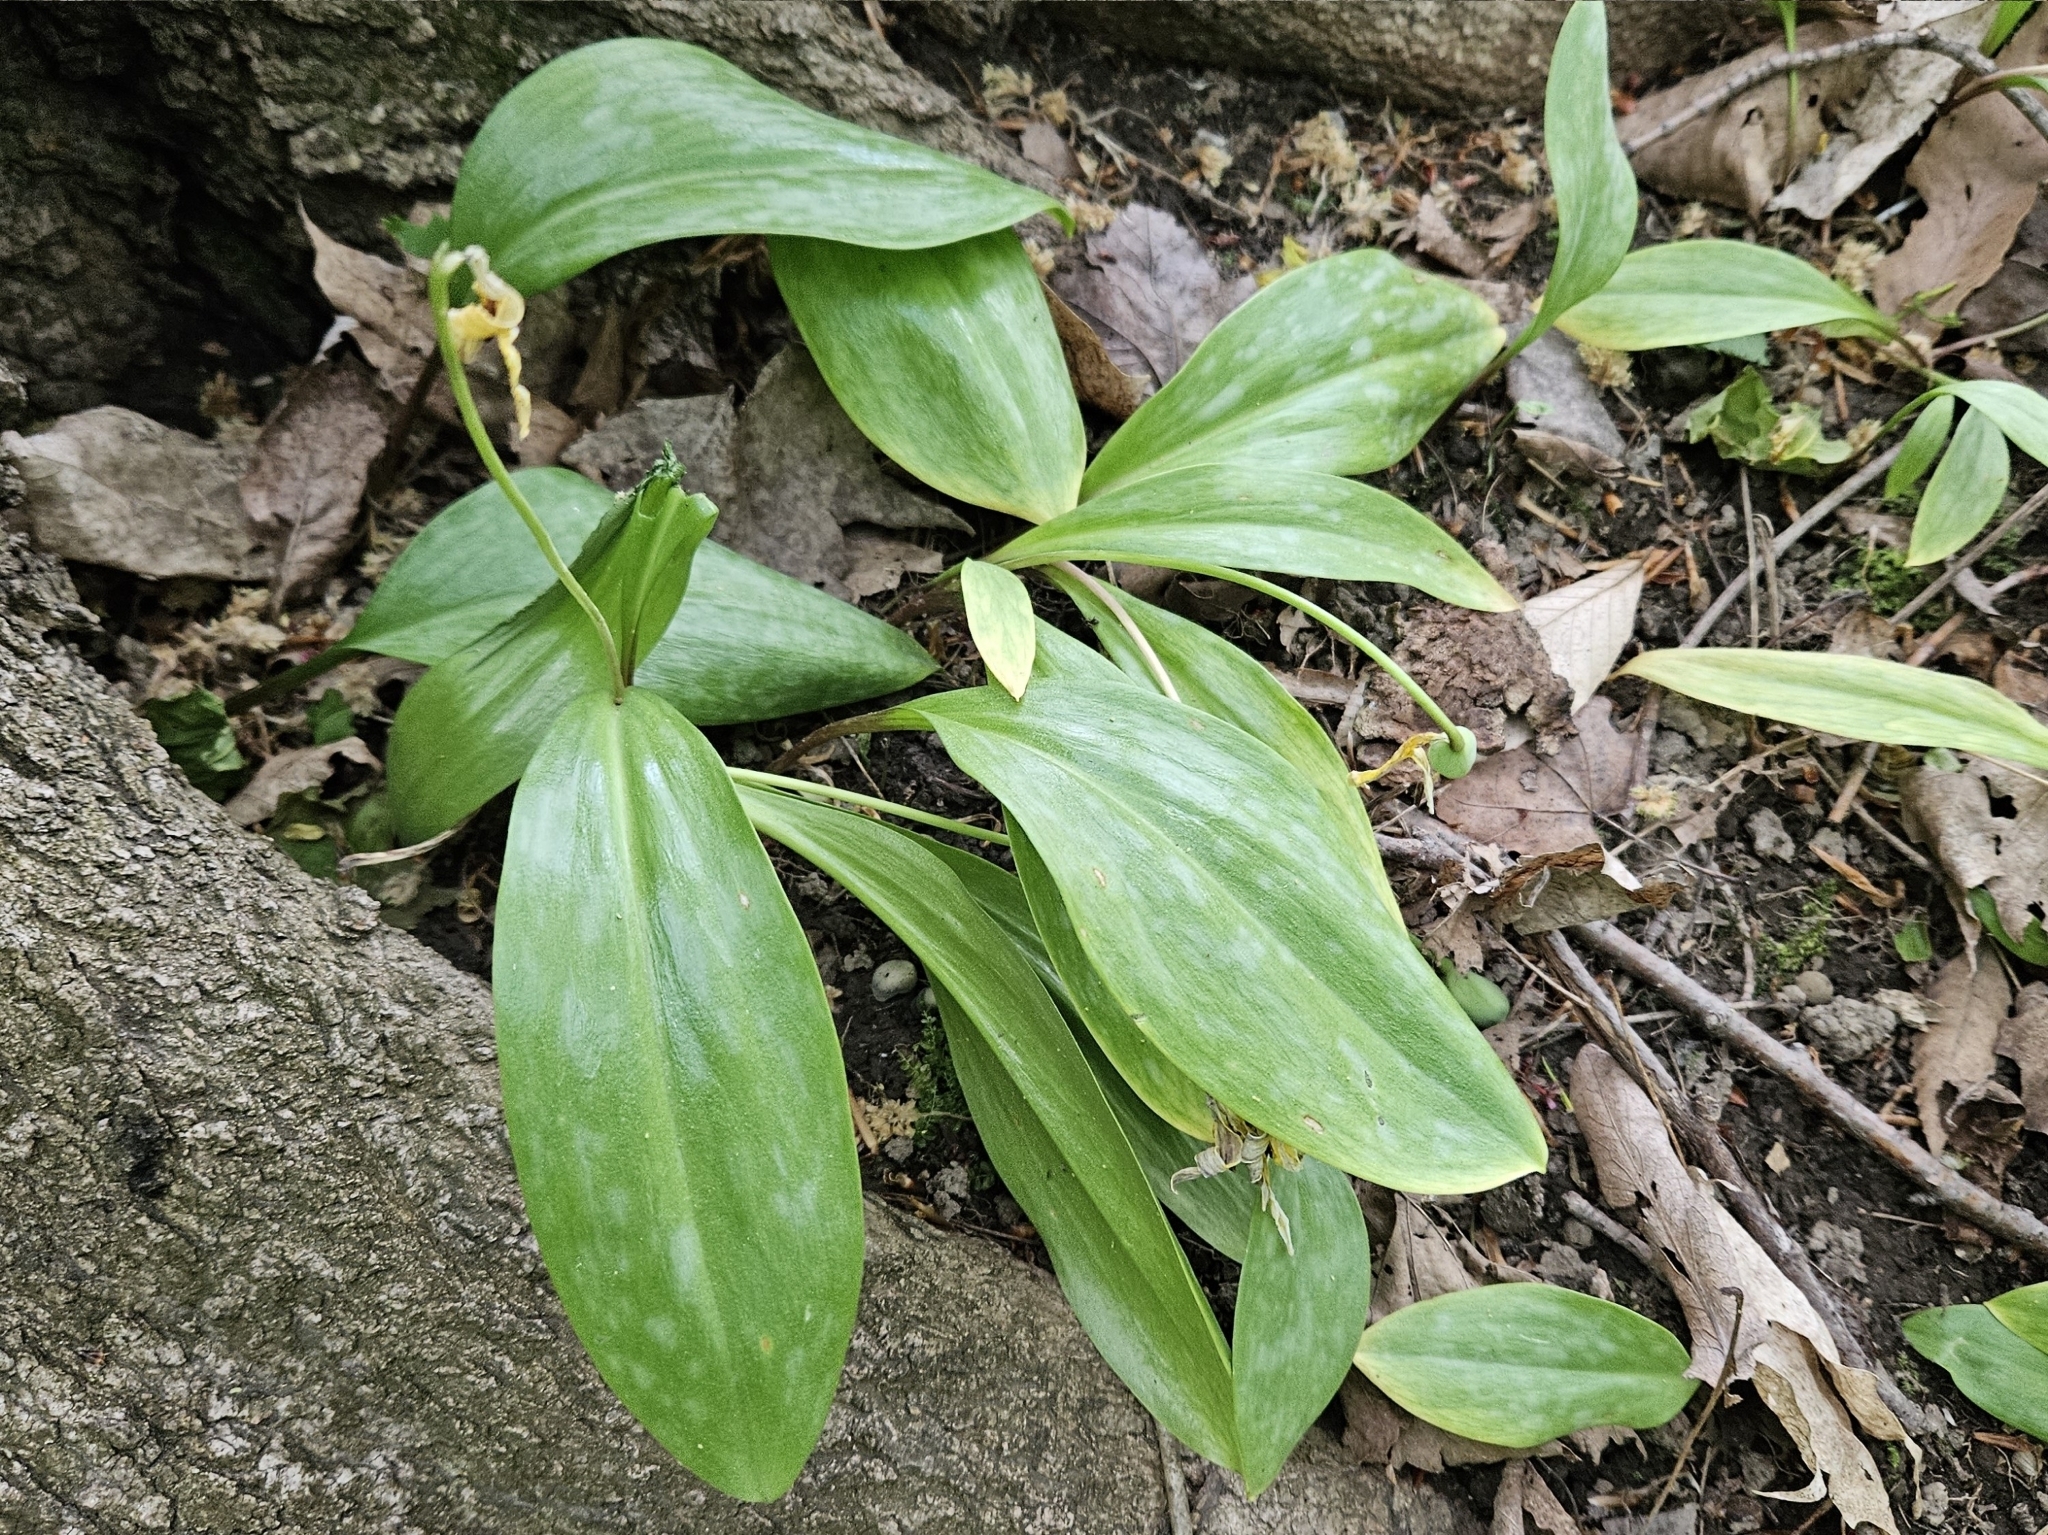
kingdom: Plantae
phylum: Tracheophyta
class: Liliopsida
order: Liliales
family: Liliaceae
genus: Erythronium
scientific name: Erythronium americanum
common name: Yellow adder's-tongue
